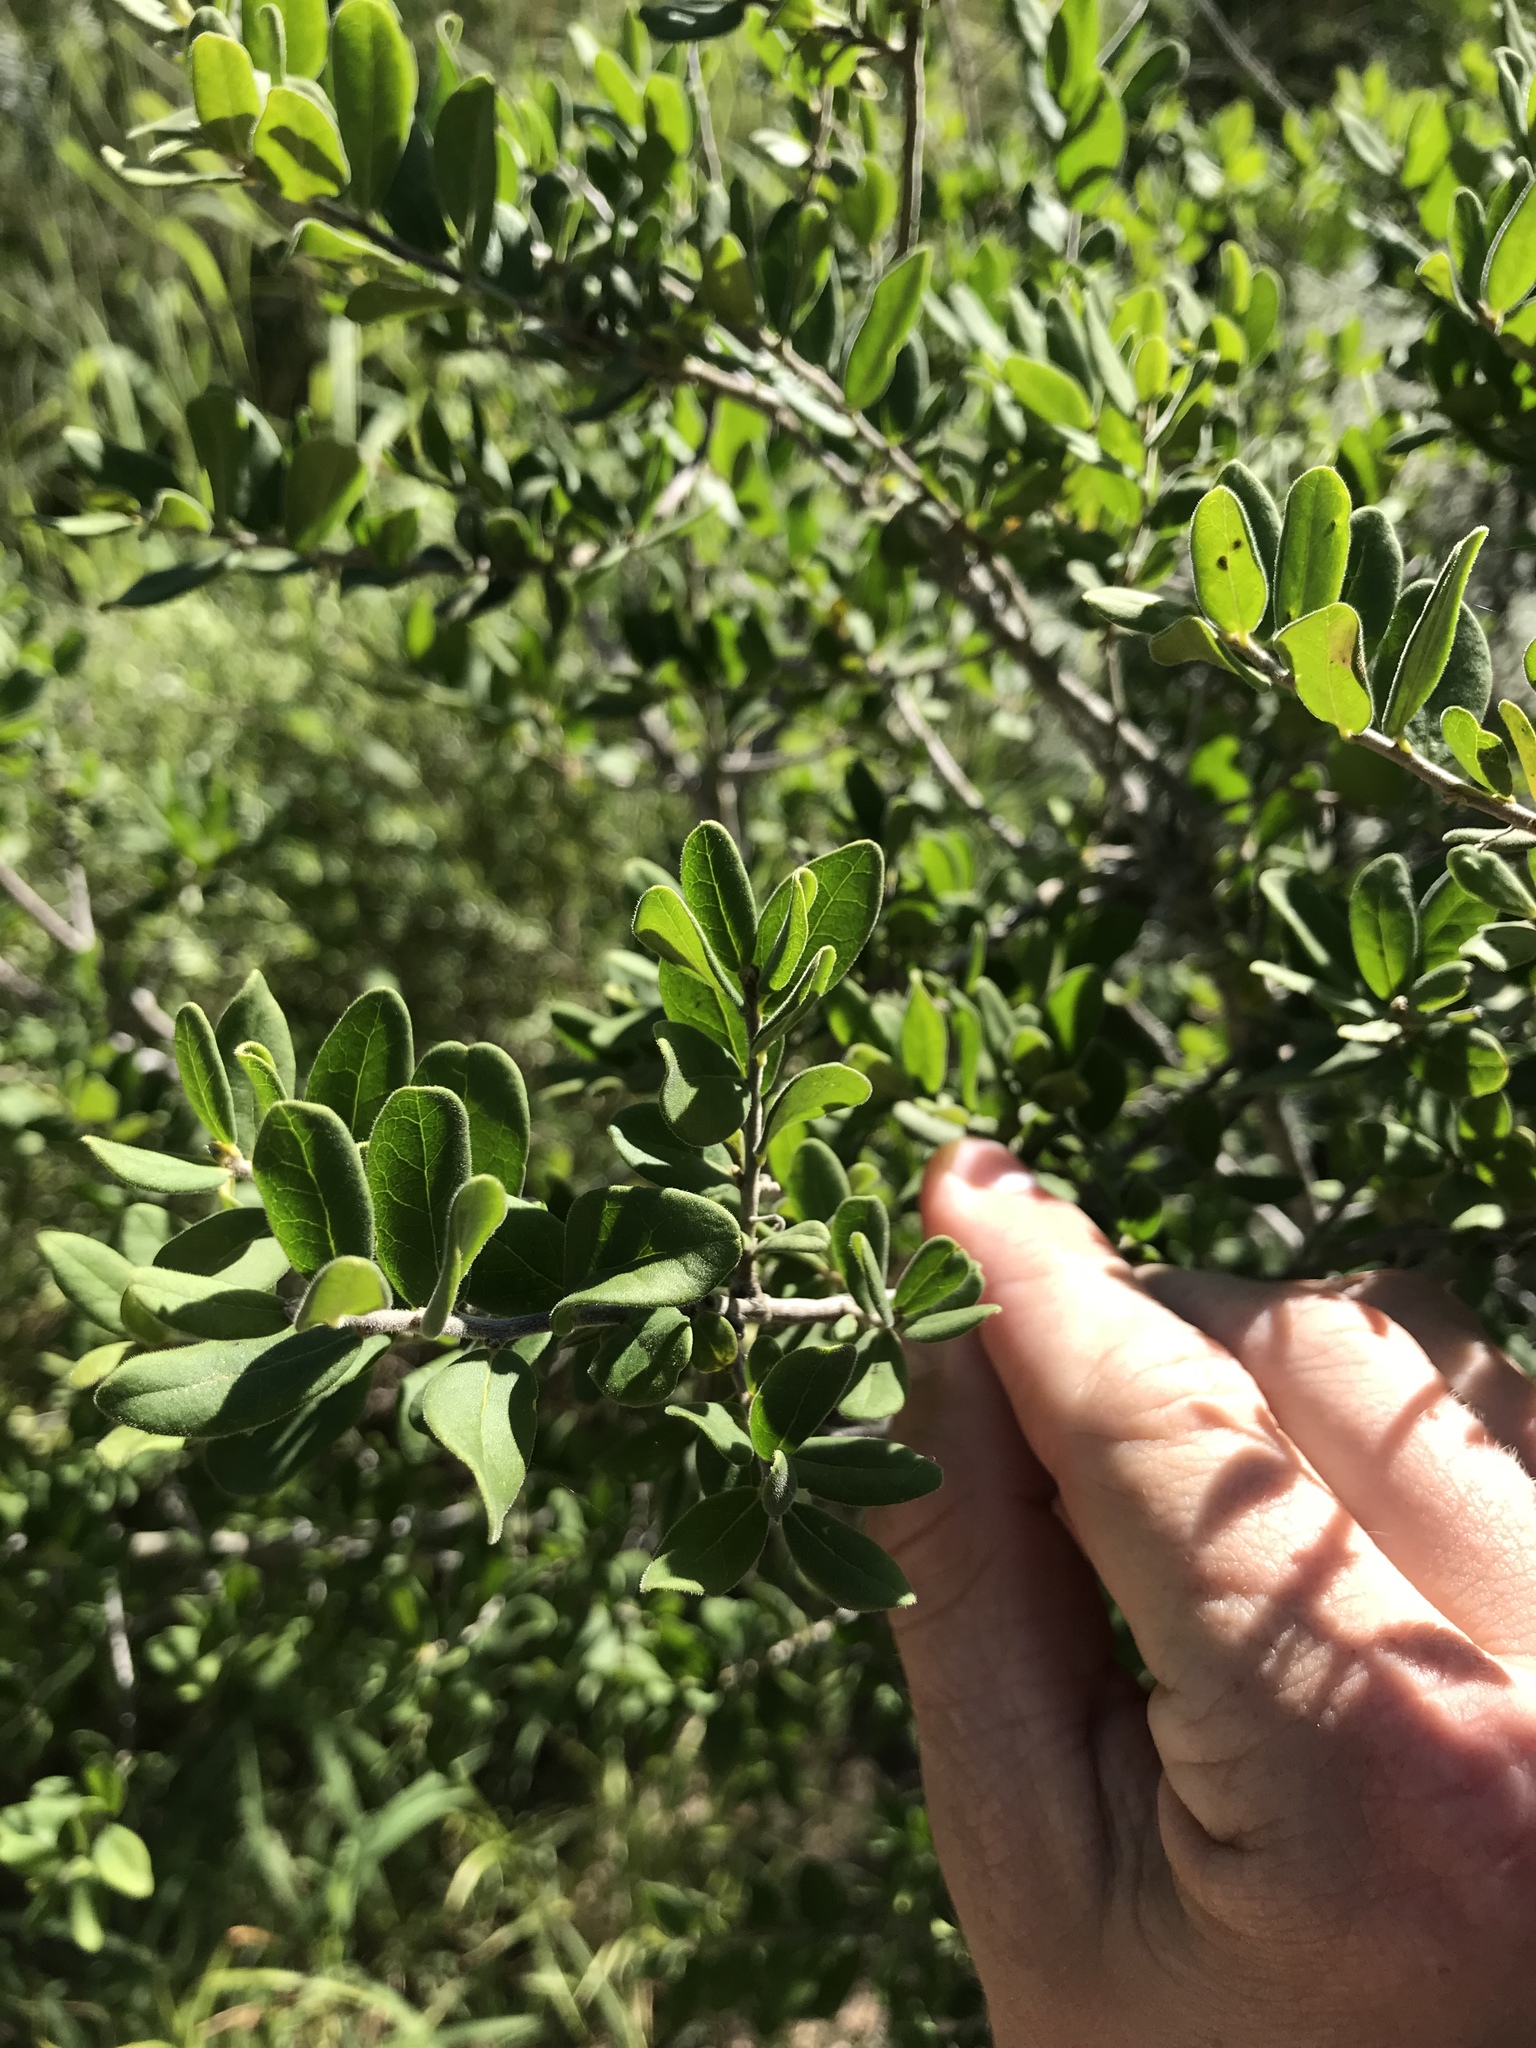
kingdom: Plantae
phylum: Tracheophyta
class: Magnoliopsida
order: Ericales
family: Ebenaceae
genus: Diospyros
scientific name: Diospyros texana
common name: Texas persimmon
